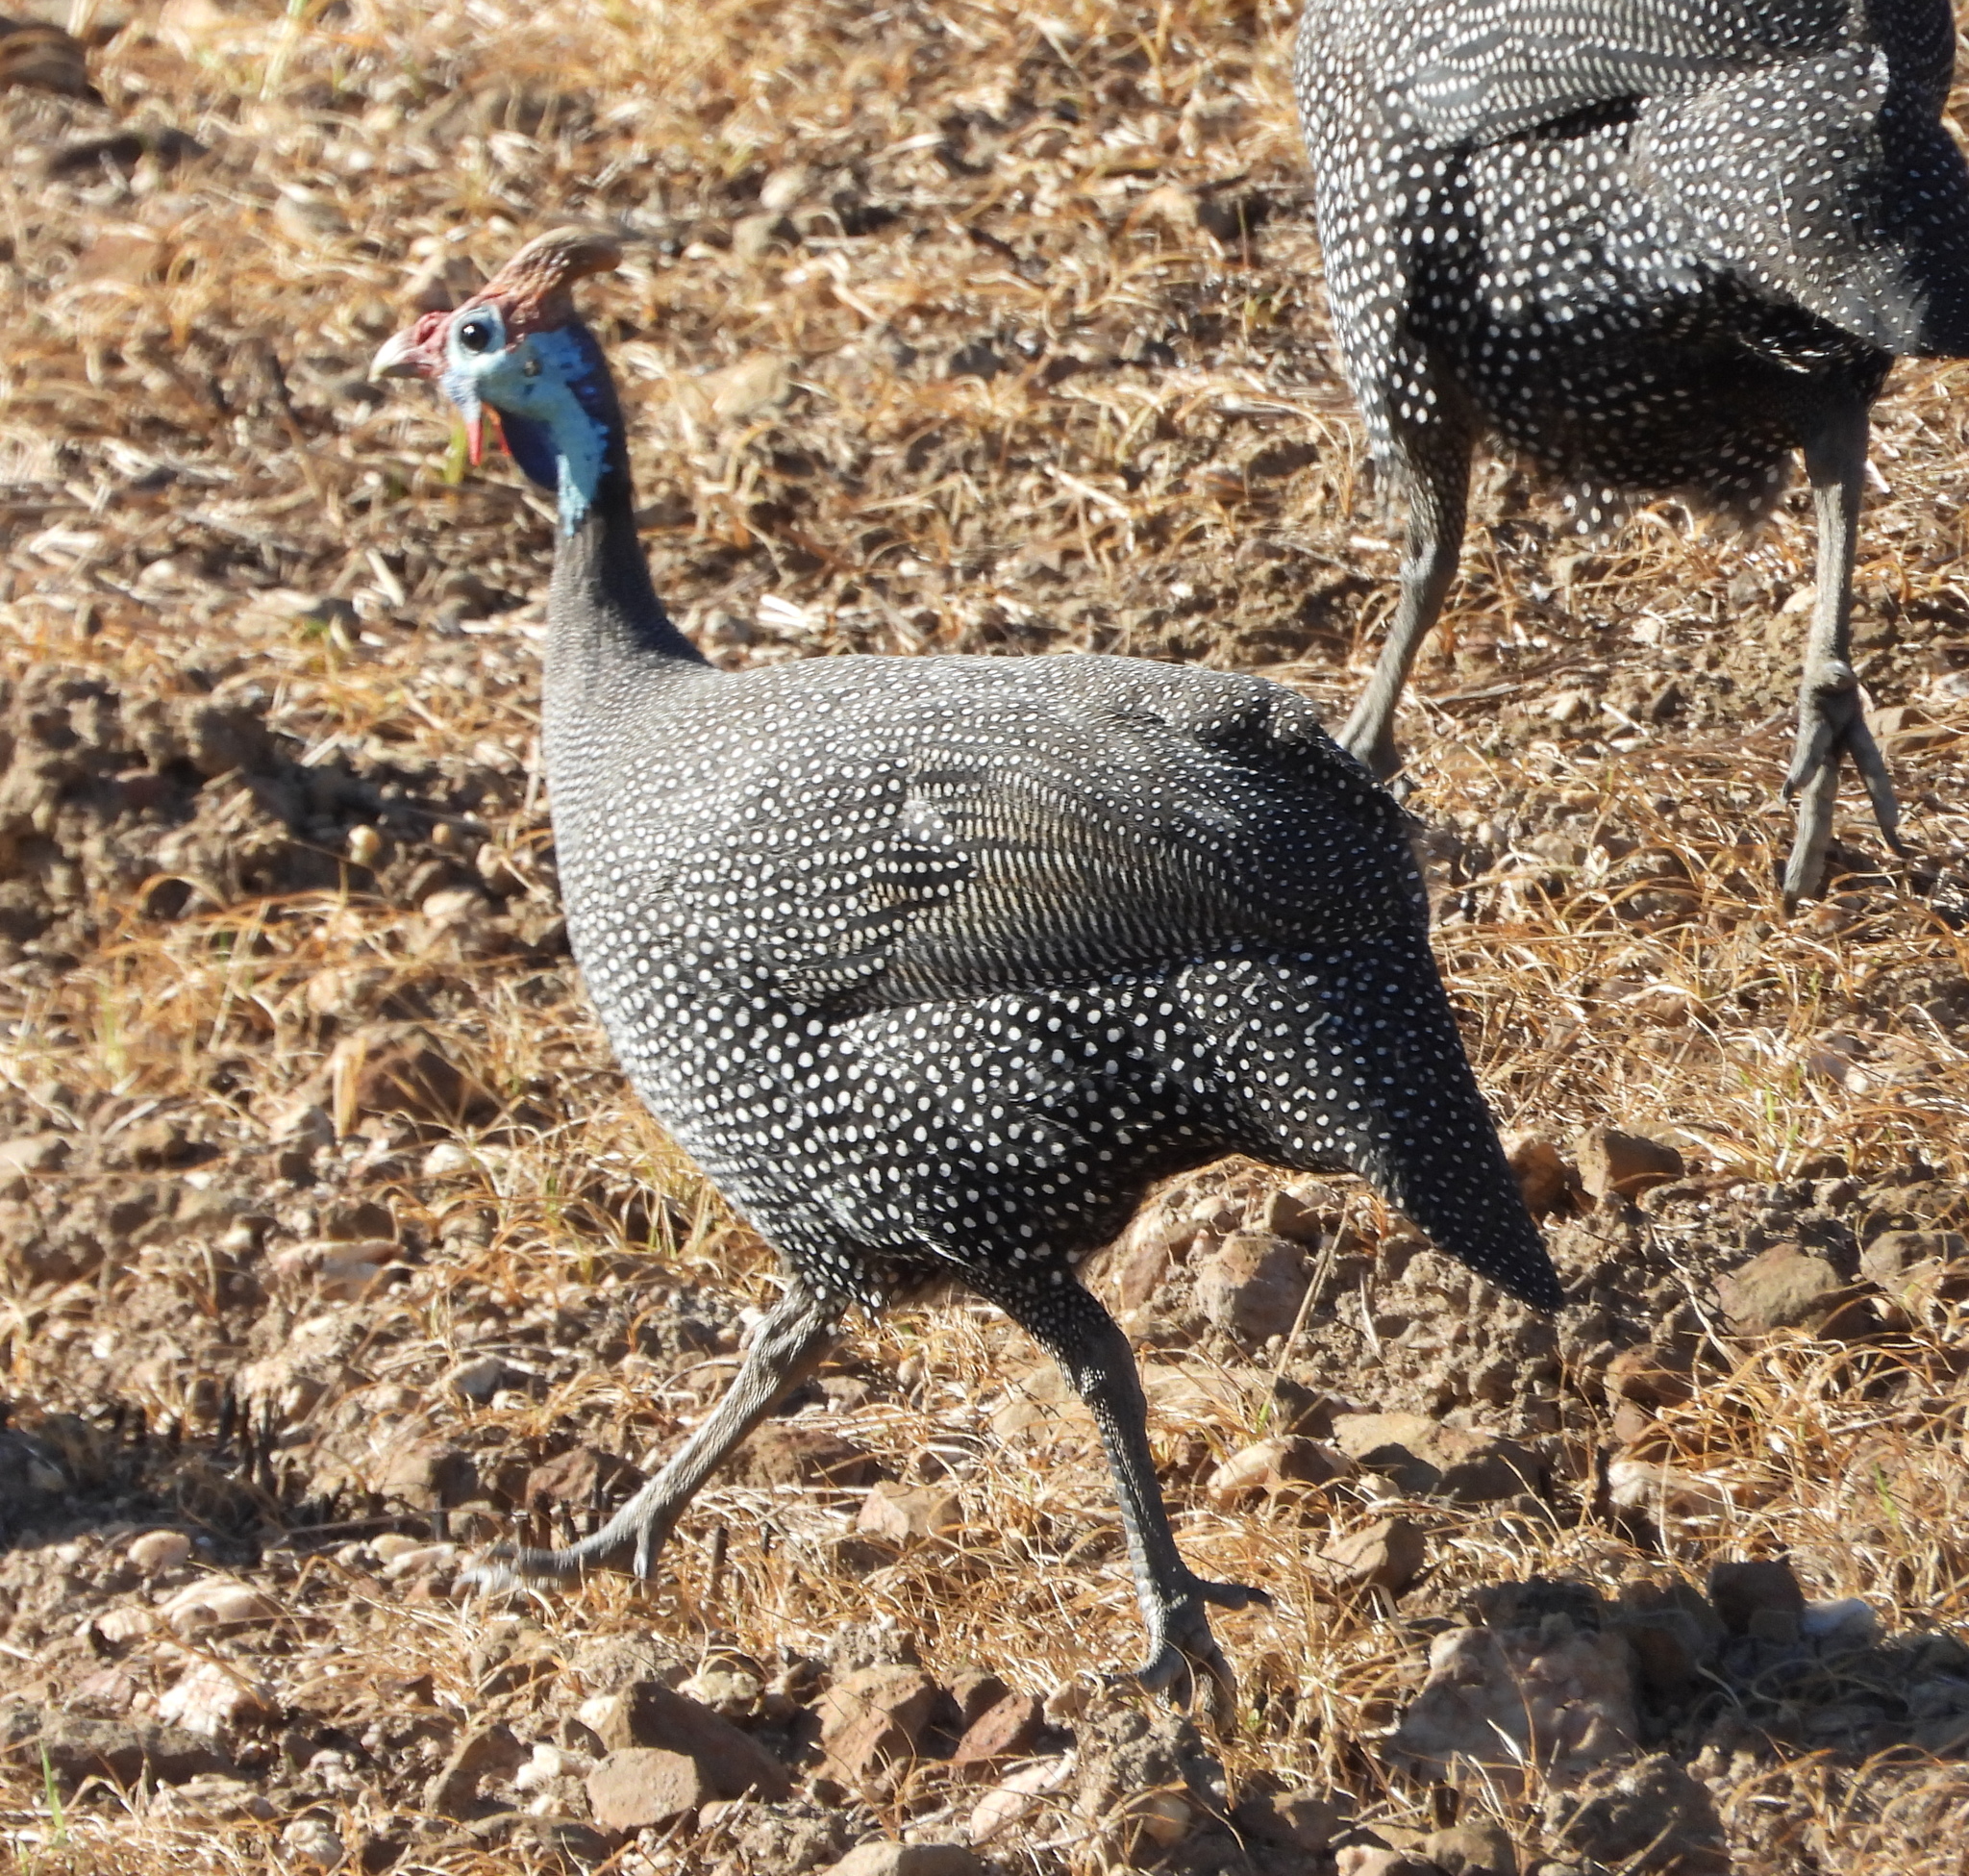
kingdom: Animalia
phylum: Chordata
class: Aves
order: Galliformes
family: Numididae
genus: Numida
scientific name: Numida meleagris
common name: Helmeted guineafowl
